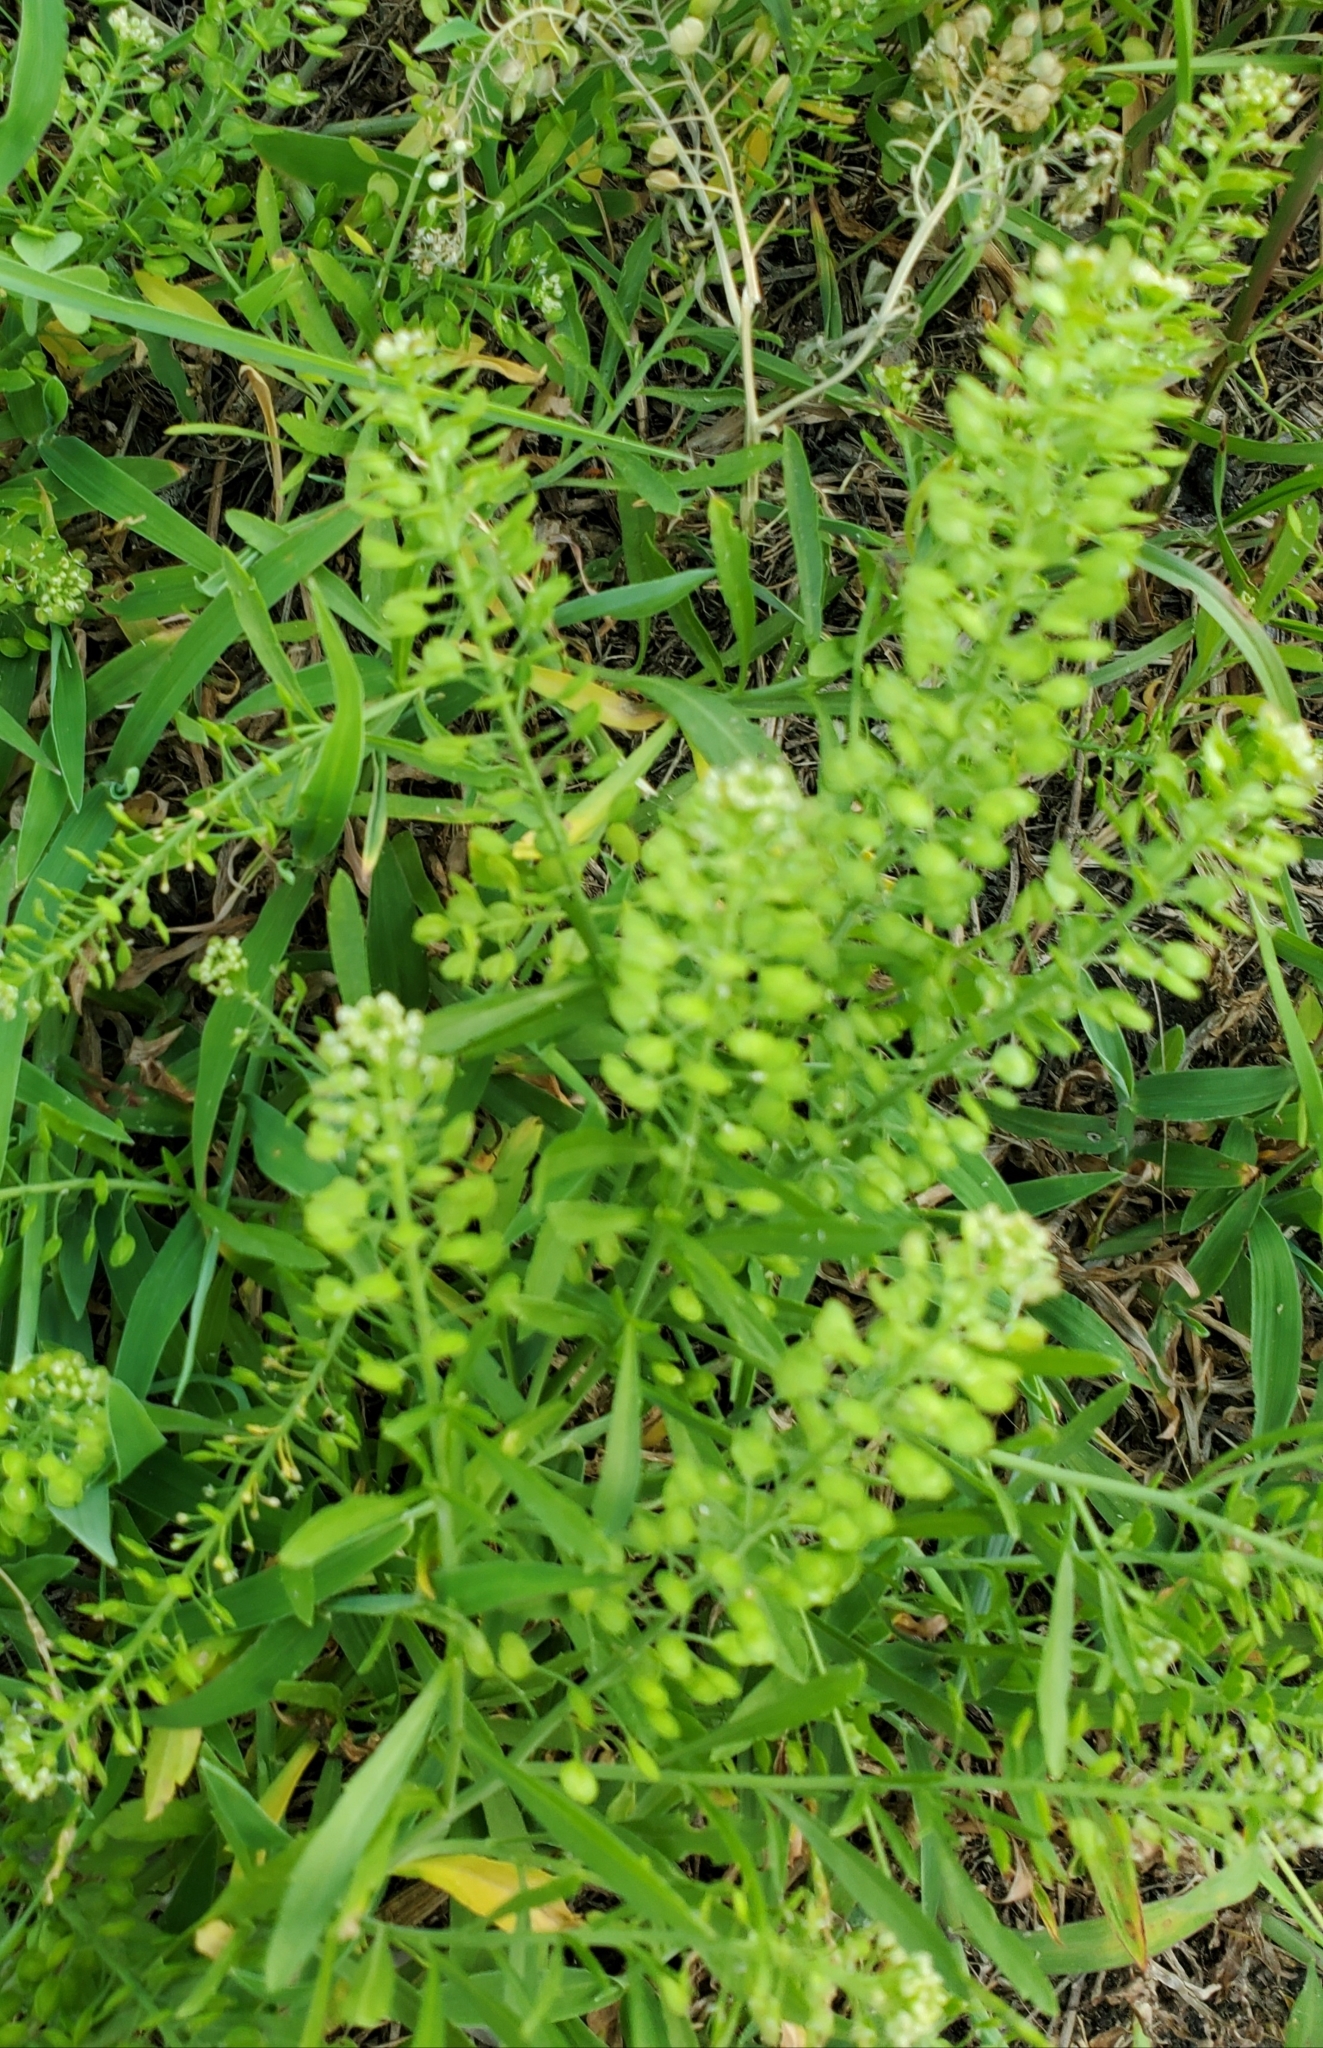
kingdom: Plantae
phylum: Tracheophyta
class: Magnoliopsida
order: Brassicales
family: Brassicaceae
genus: Lepidium
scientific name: Lepidium virginicum
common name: Least pepperwort
